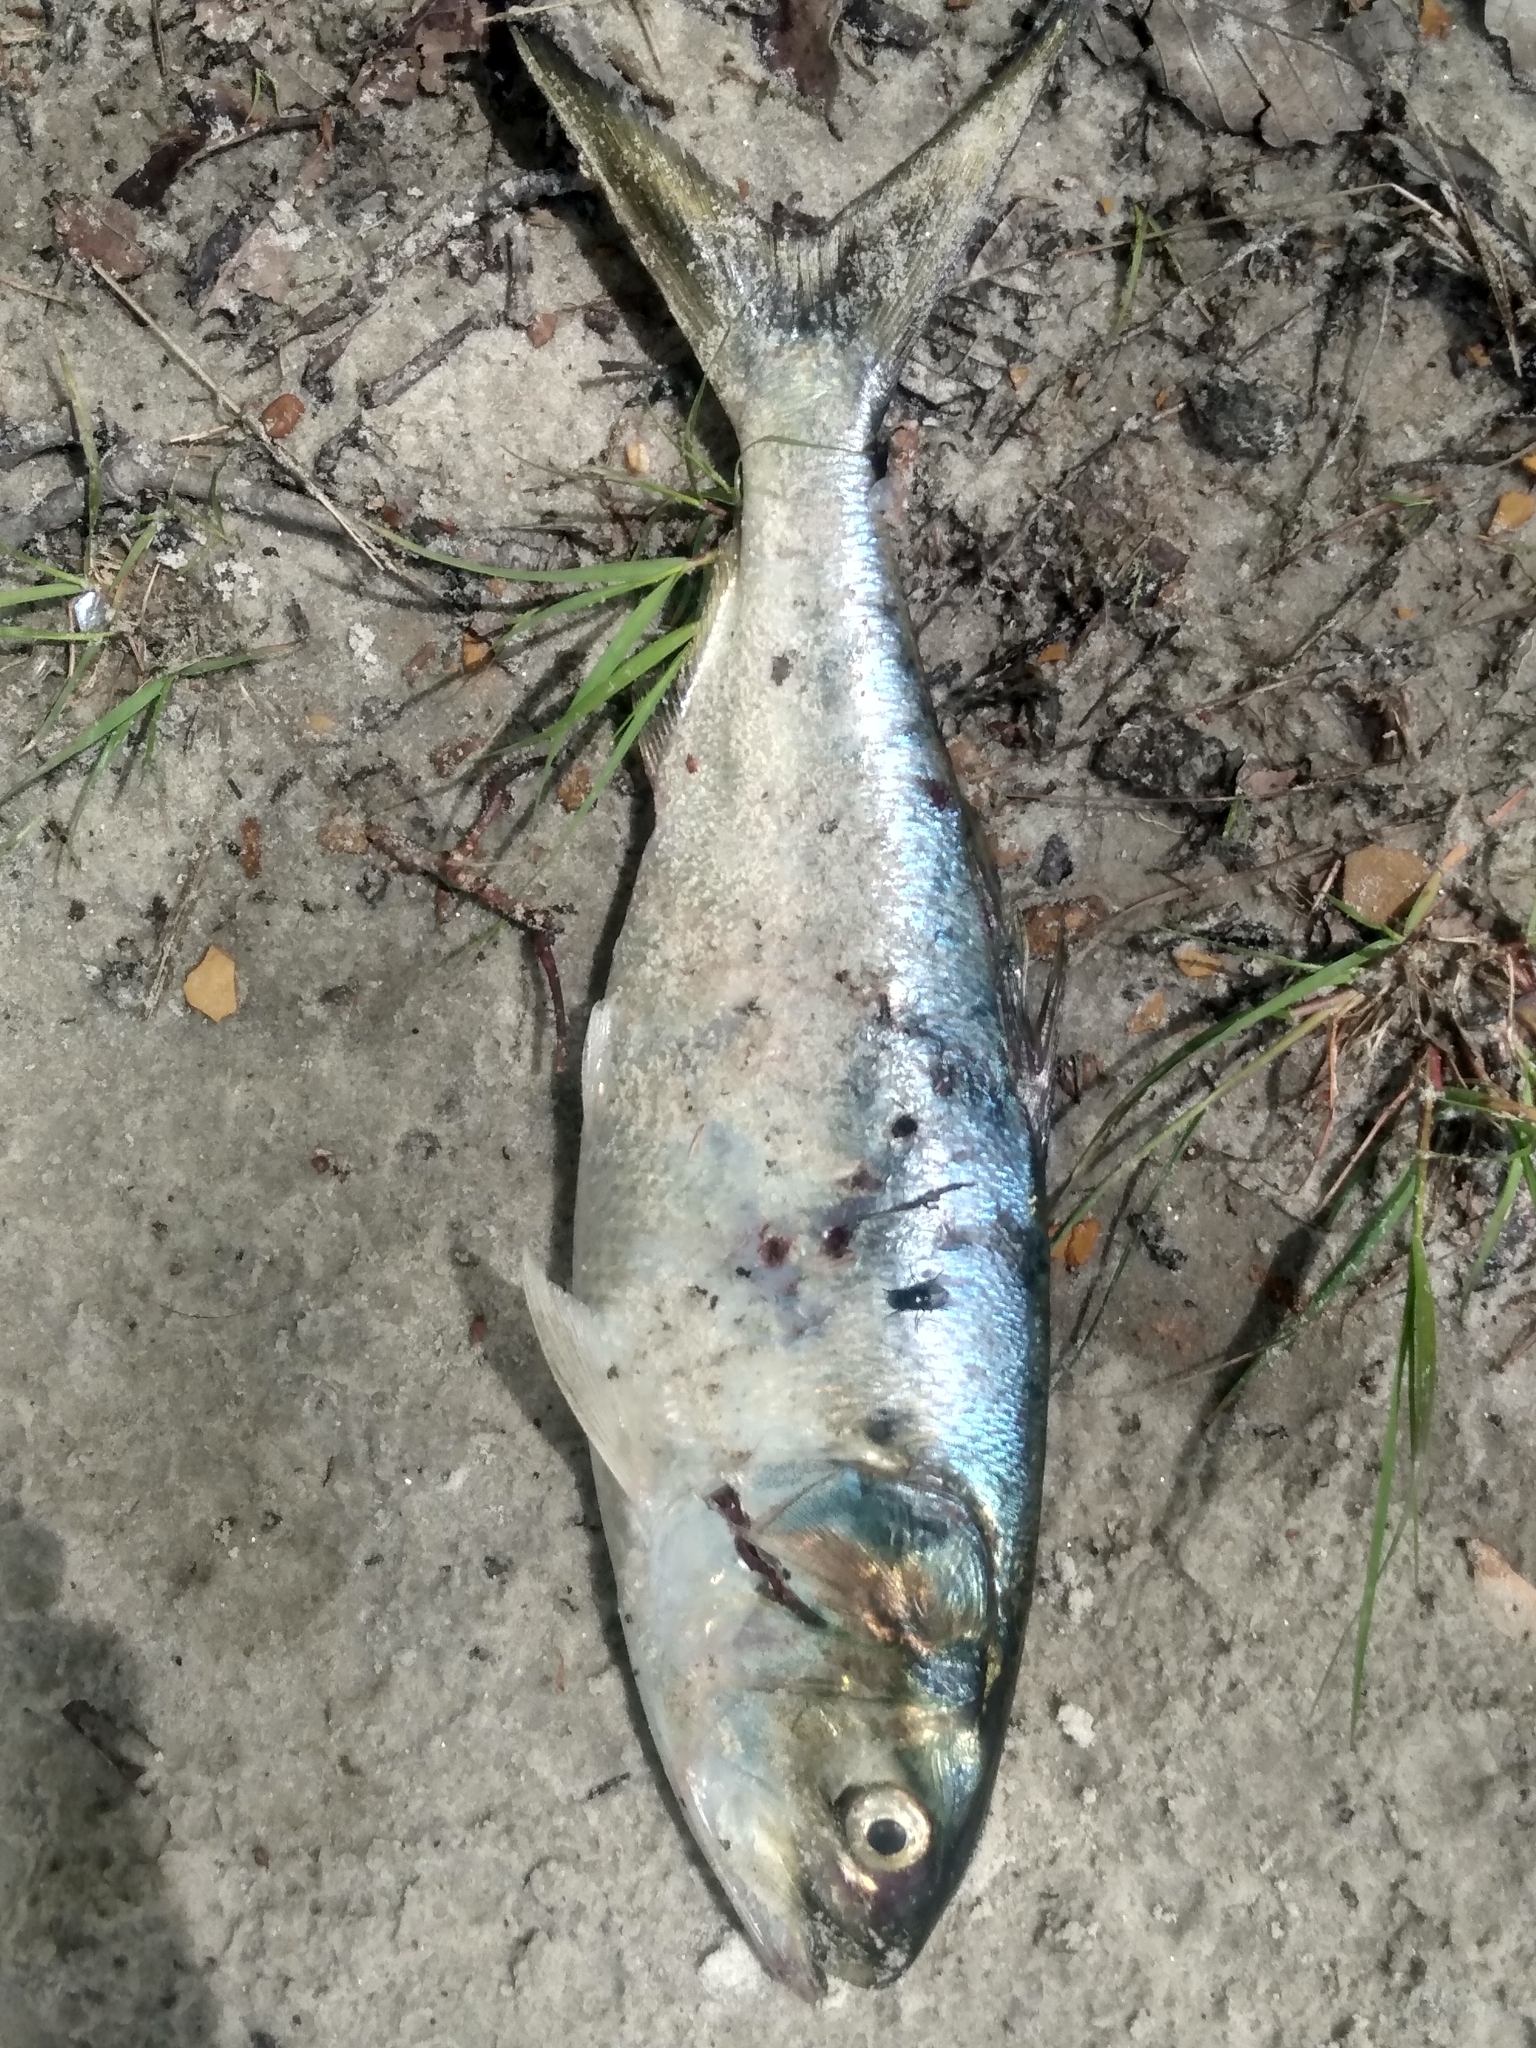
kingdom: Animalia
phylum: Chordata
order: Clupeiformes
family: Clupeidae
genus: Brevoortia
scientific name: Brevoortia tyrannus
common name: Atlantic menhaden
